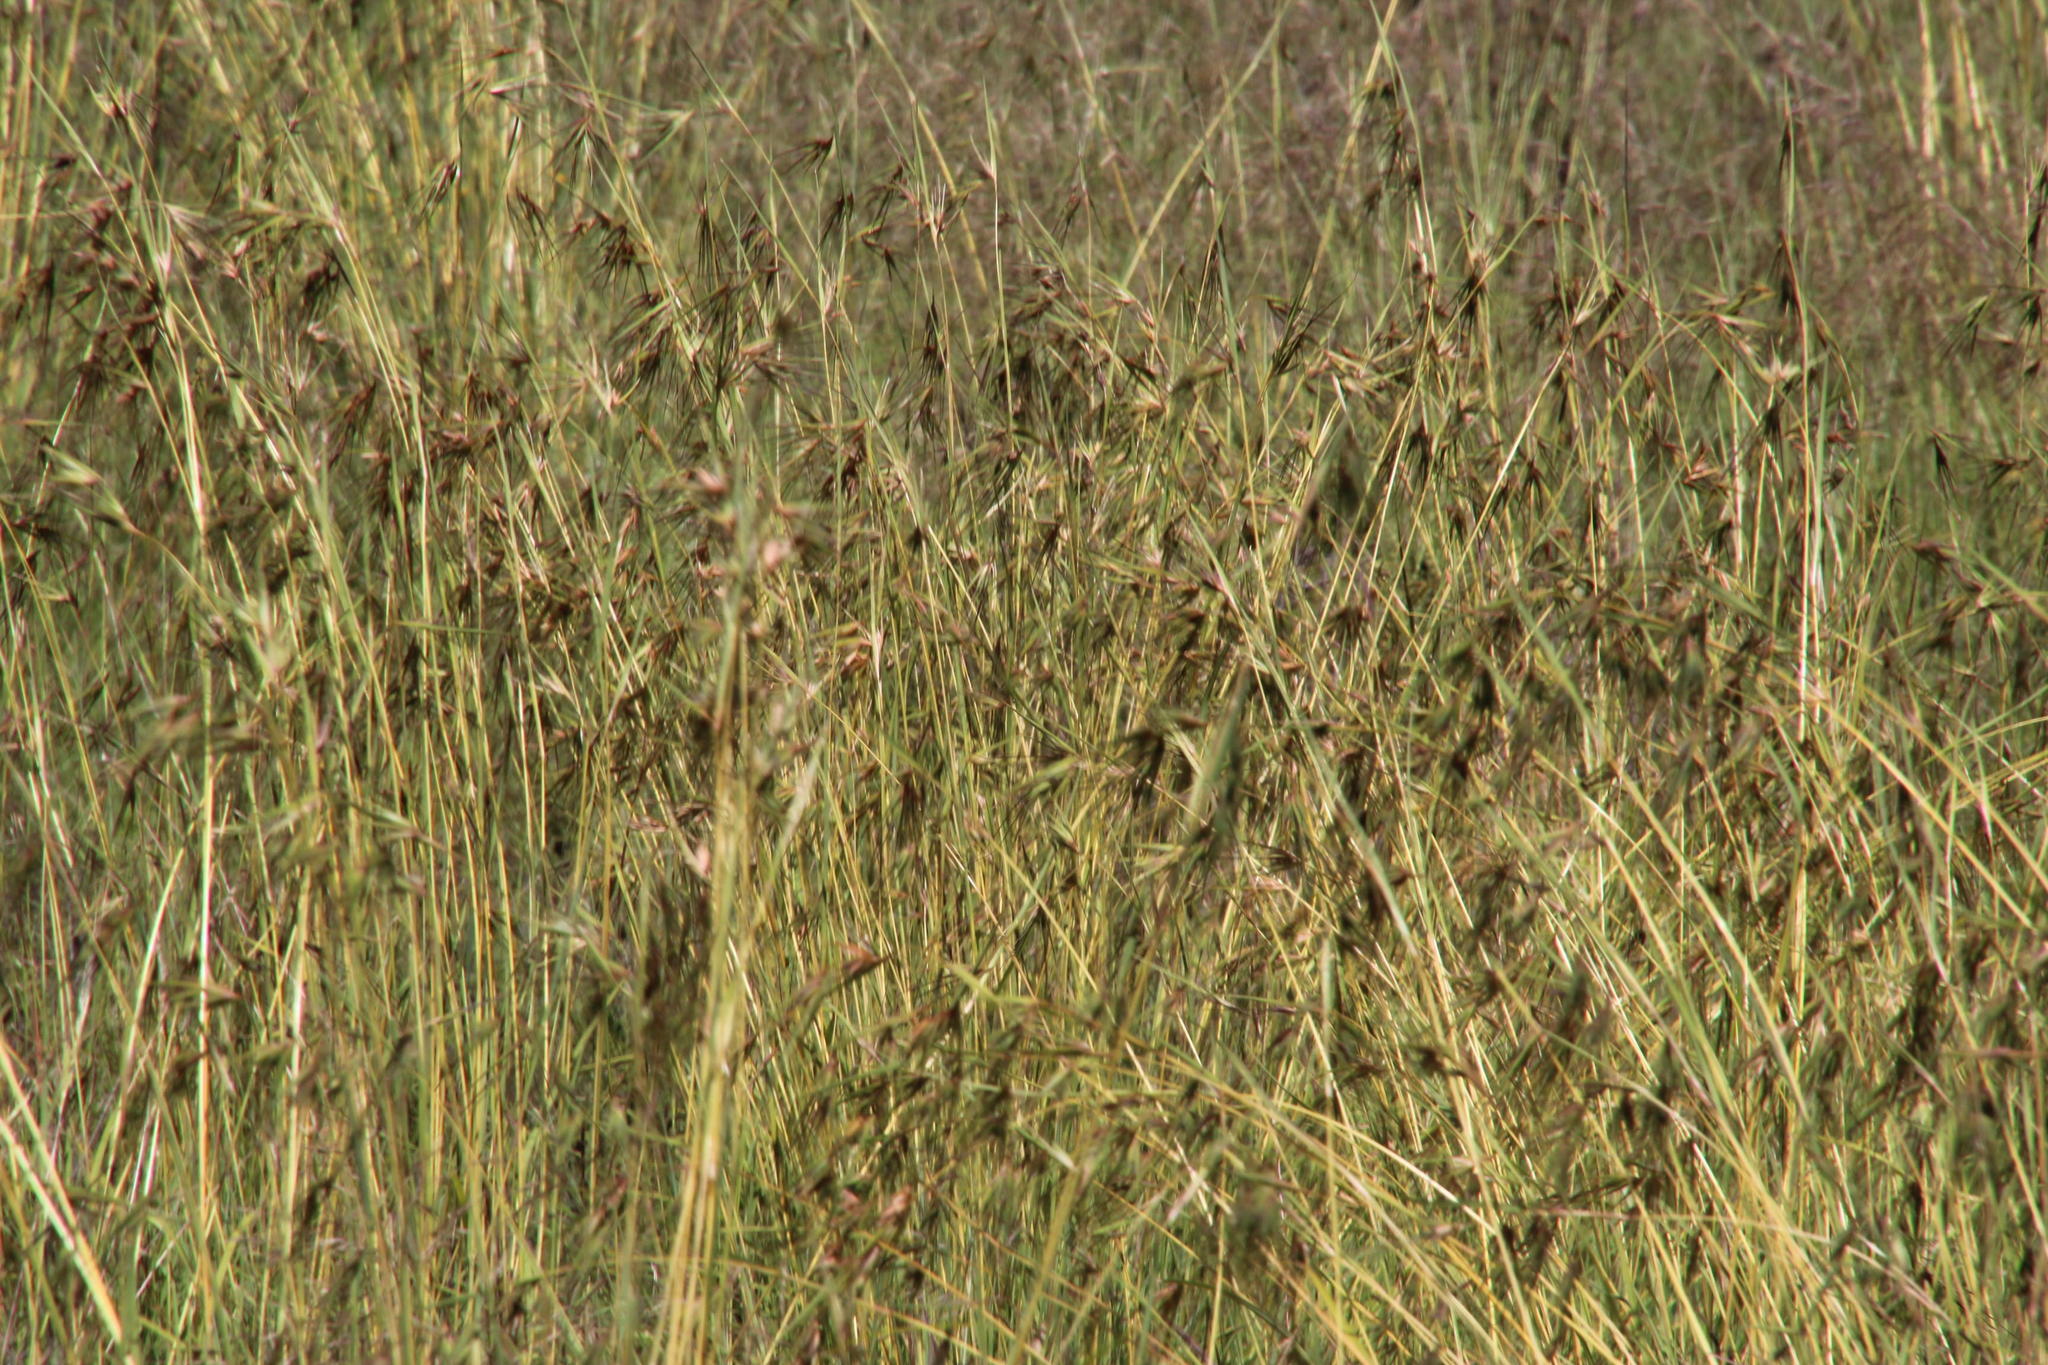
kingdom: Plantae
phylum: Tracheophyta
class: Liliopsida
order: Poales
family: Poaceae
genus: Themeda
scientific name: Themeda triandra
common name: Kangaroo grass
